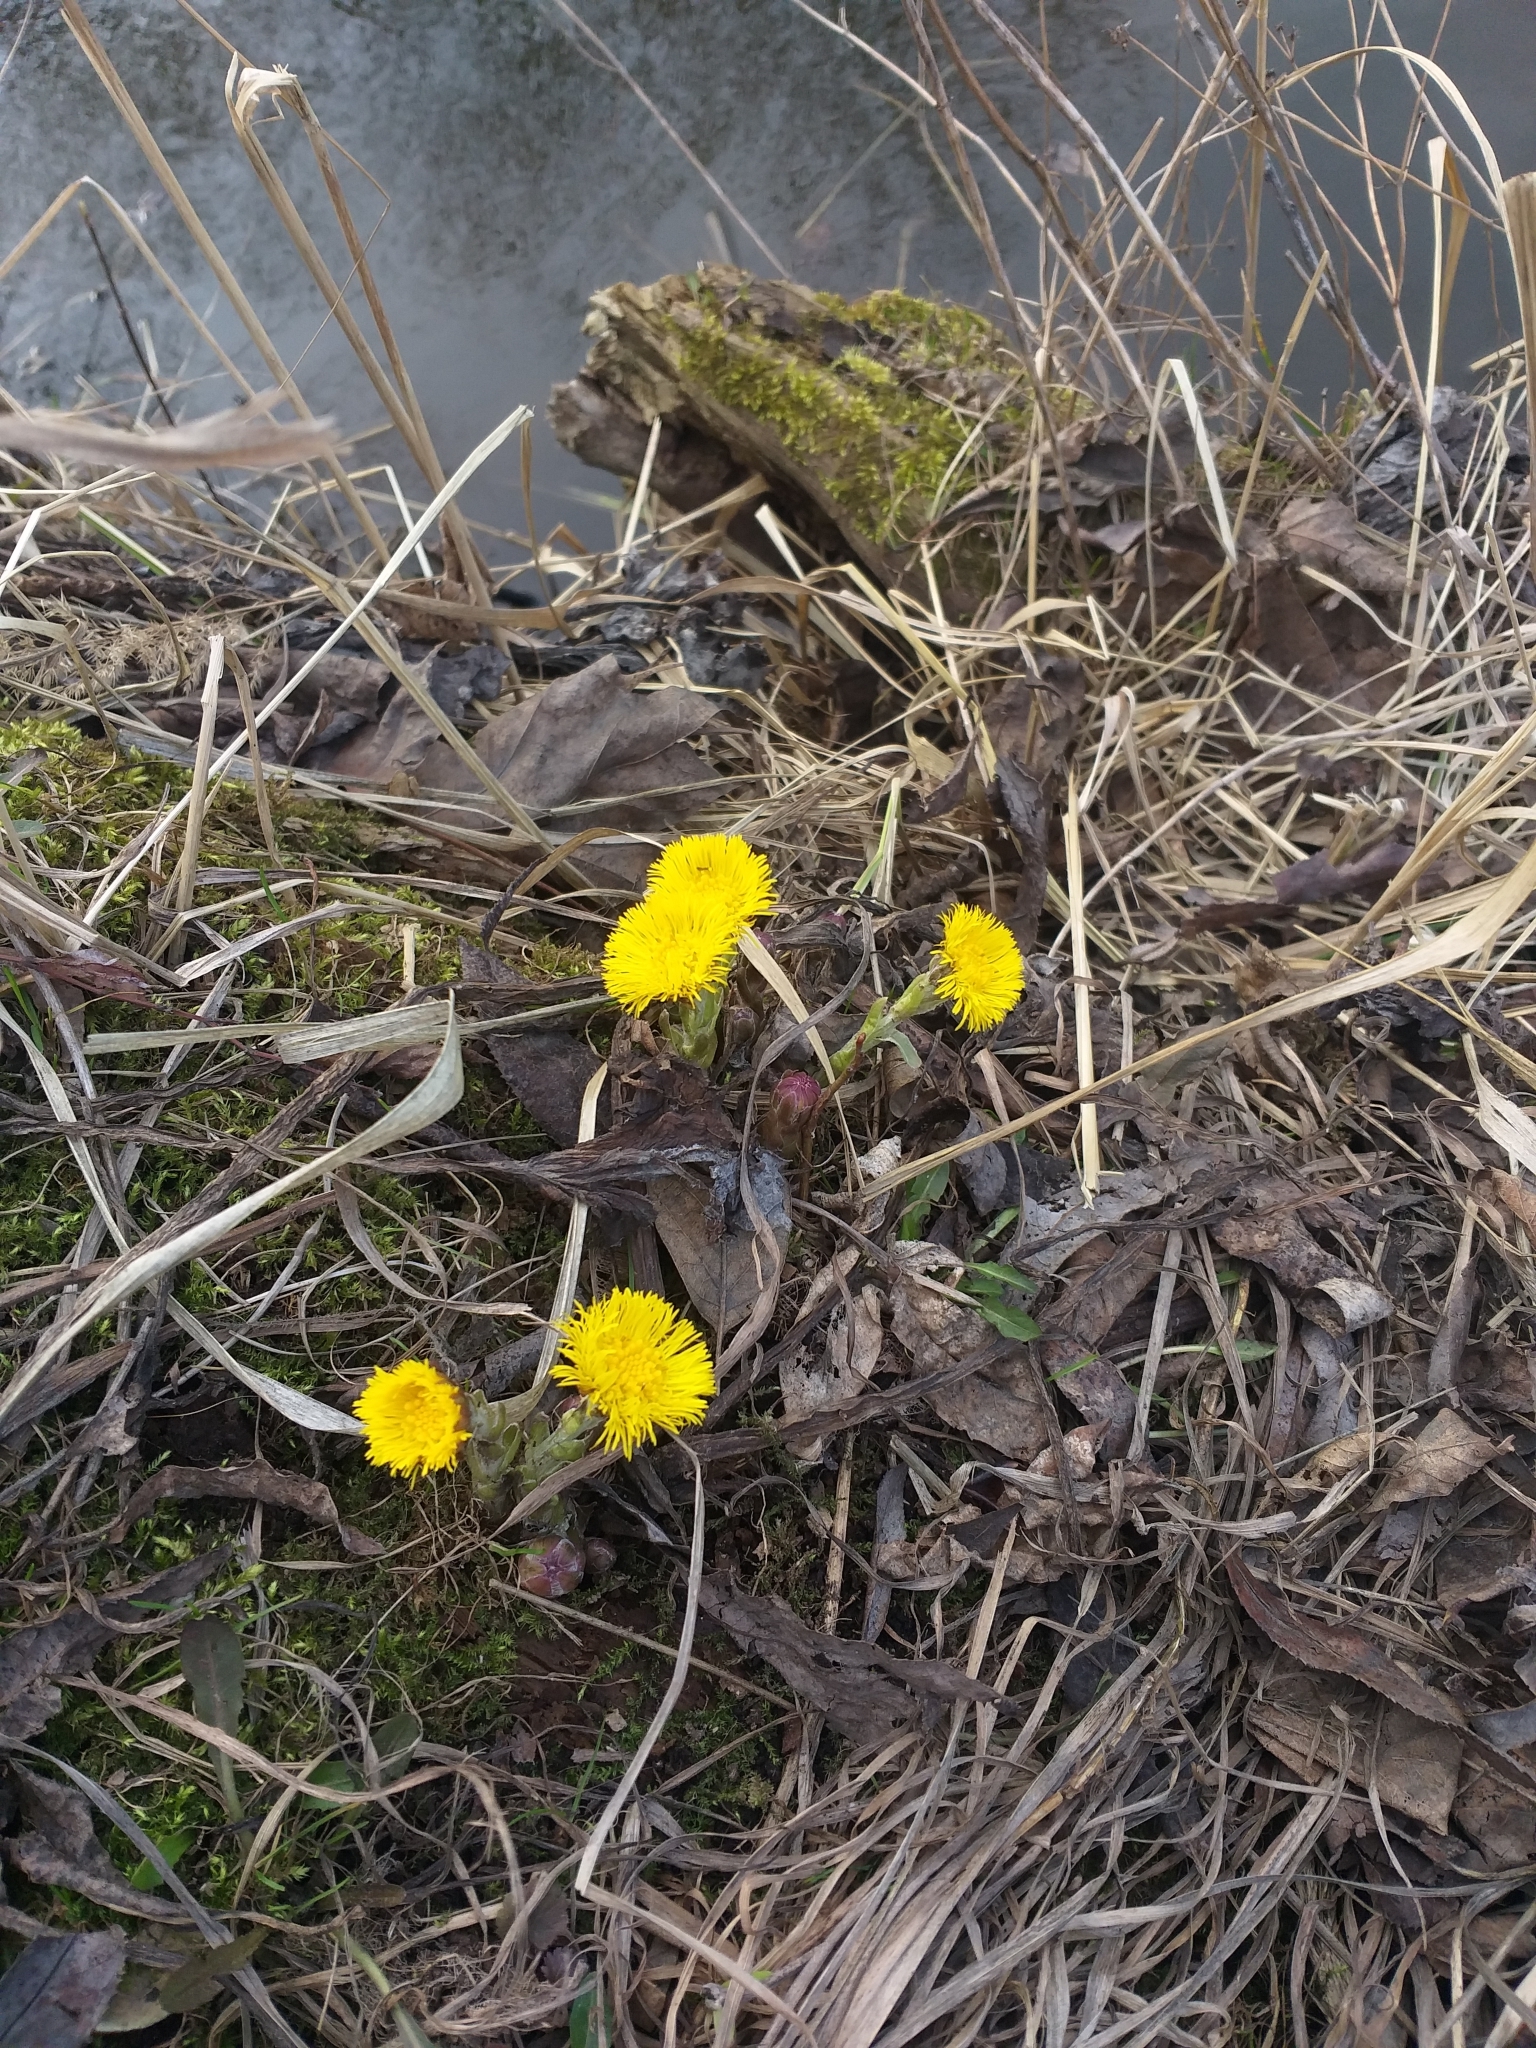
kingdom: Plantae
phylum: Tracheophyta
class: Magnoliopsida
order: Asterales
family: Asteraceae
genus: Tussilago
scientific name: Tussilago farfara
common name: Coltsfoot
